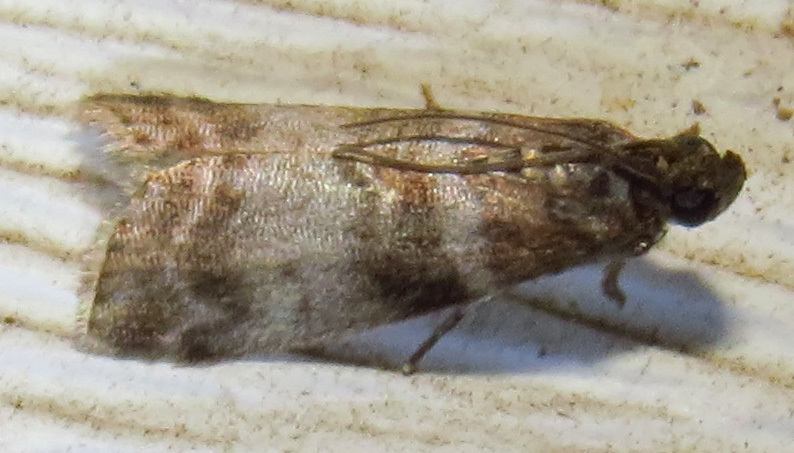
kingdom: Animalia
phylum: Arthropoda
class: Insecta
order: Lepidoptera
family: Pyralidae
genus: Sciota
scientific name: Sciota uvinella
